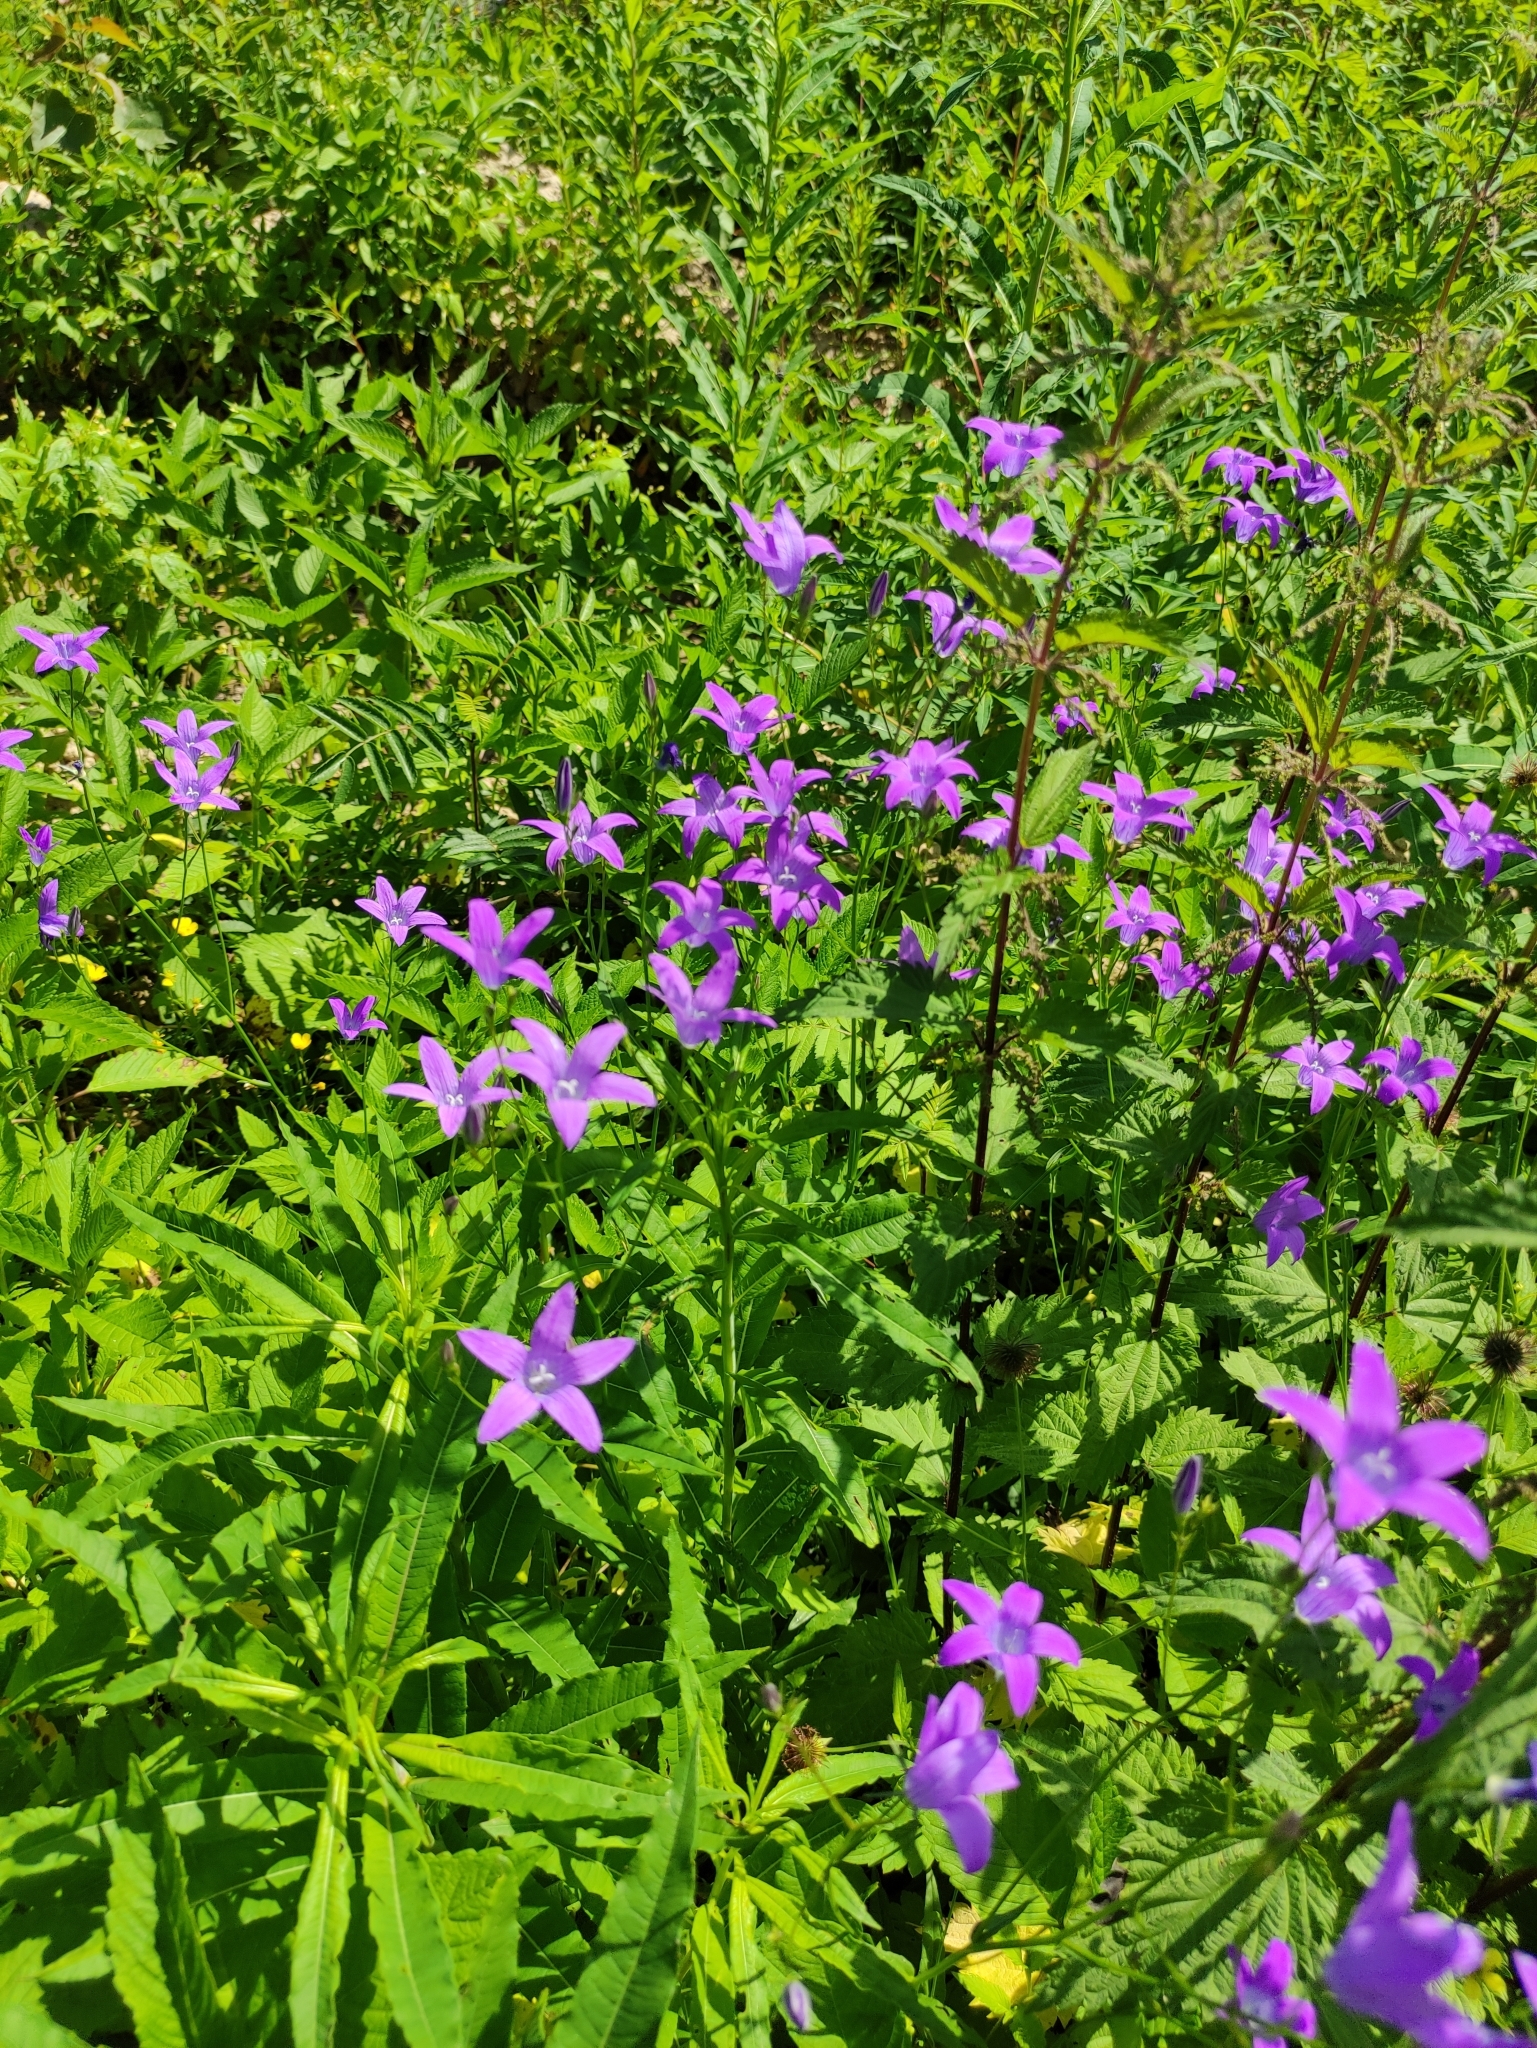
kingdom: Plantae
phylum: Tracheophyta
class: Magnoliopsida
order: Asterales
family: Campanulaceae
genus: Campanula
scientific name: Campanula patula
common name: Spreading bellflower
